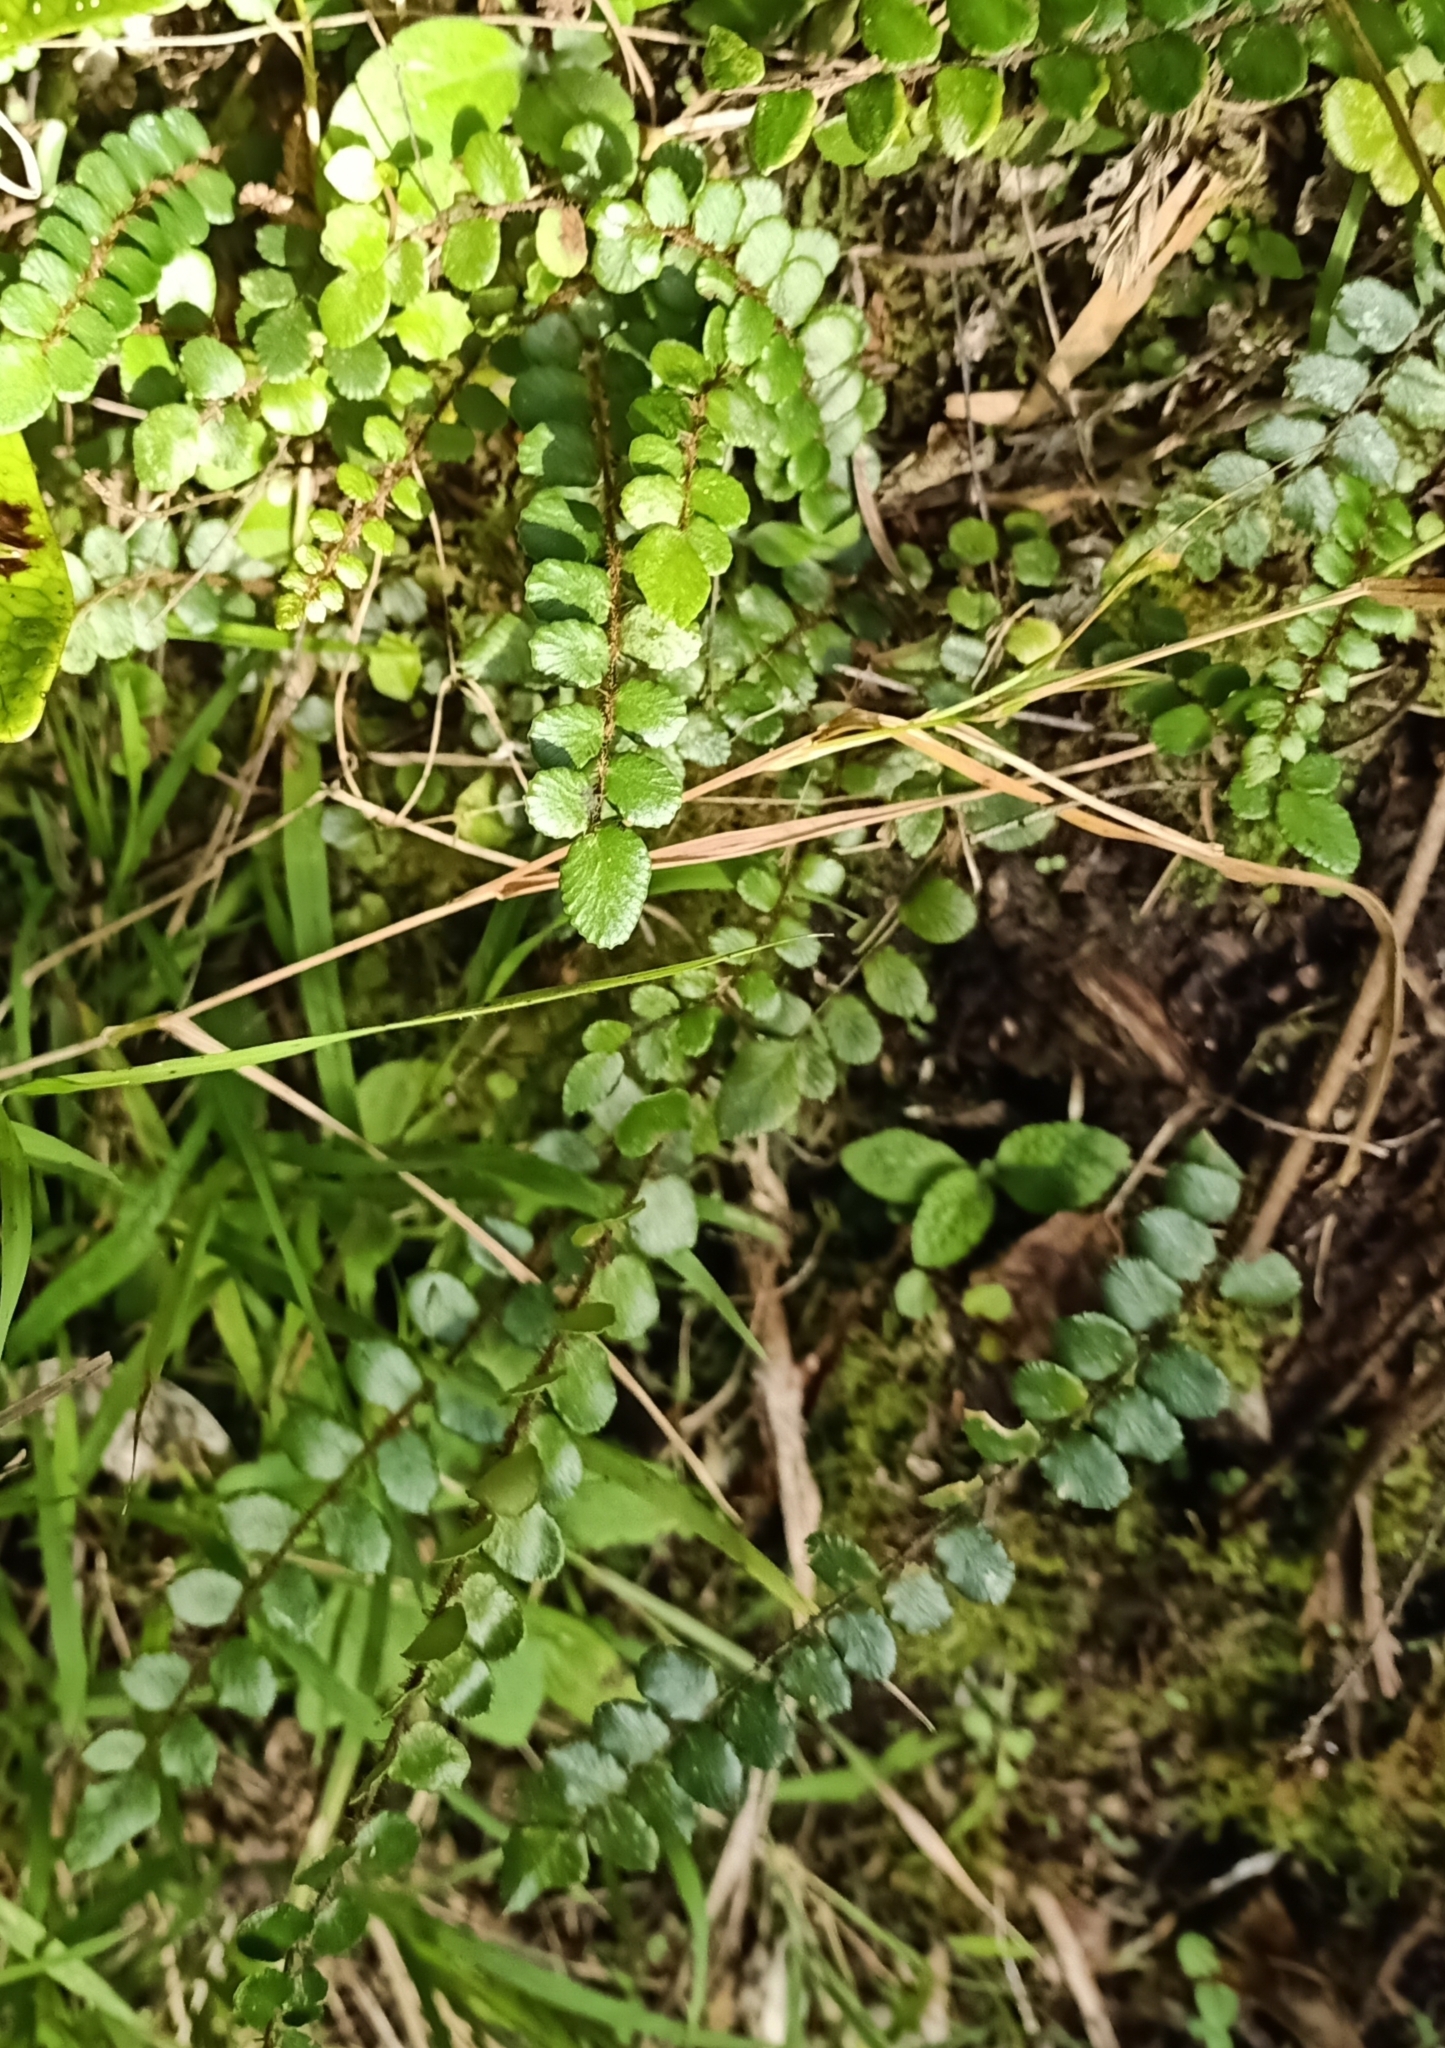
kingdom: Plantae
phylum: Tracheophyta
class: Polypodiopsida
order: Polypodiales
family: Pteridaceae
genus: Pellaea
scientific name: Pellaea rotundifolia
